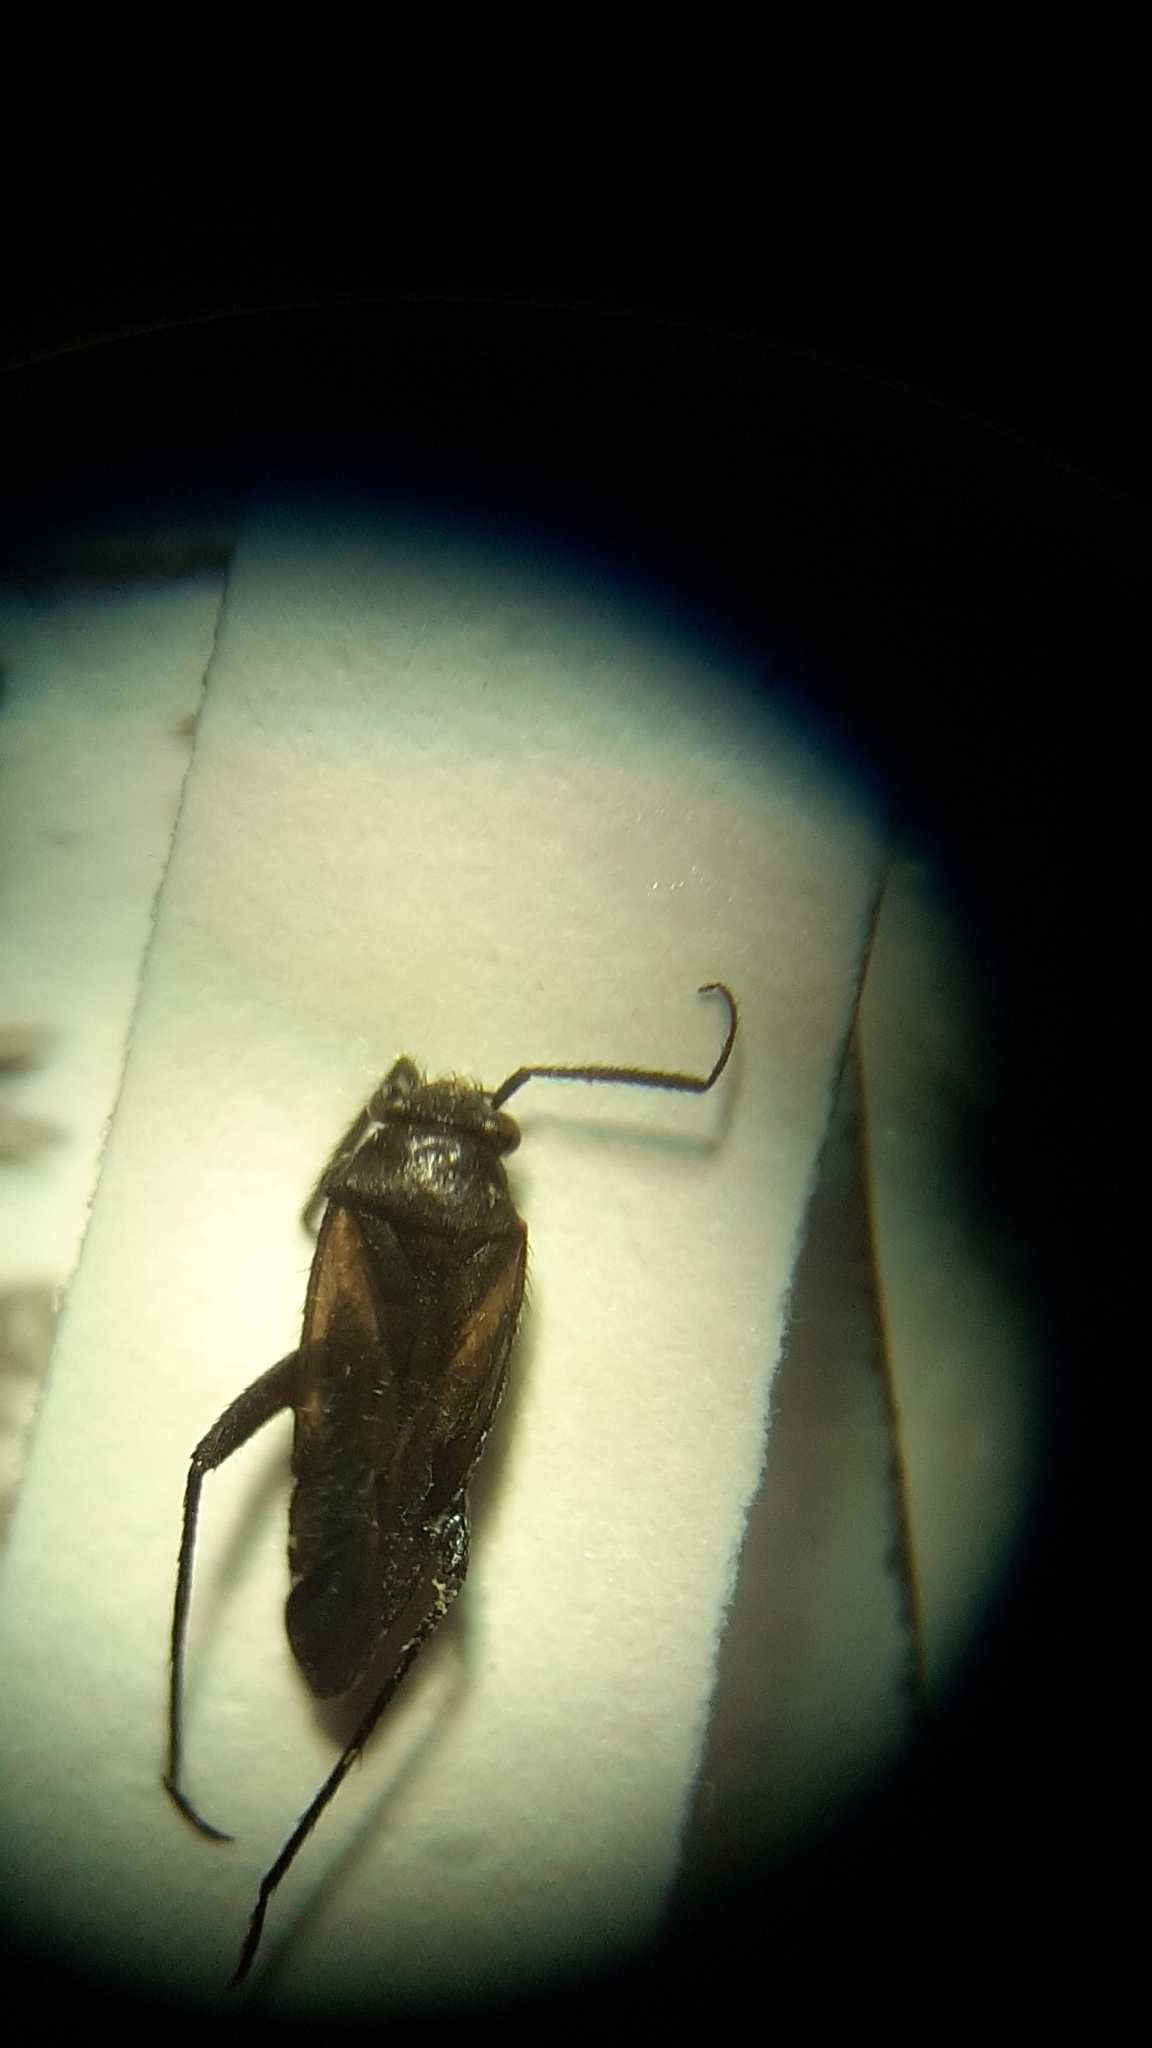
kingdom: Animalia
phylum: Arthropoda
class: Insecta
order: Hemiptera
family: Miridae
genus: Orthocephalus
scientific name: Orthocephalus coriaceus
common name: Plant bug
